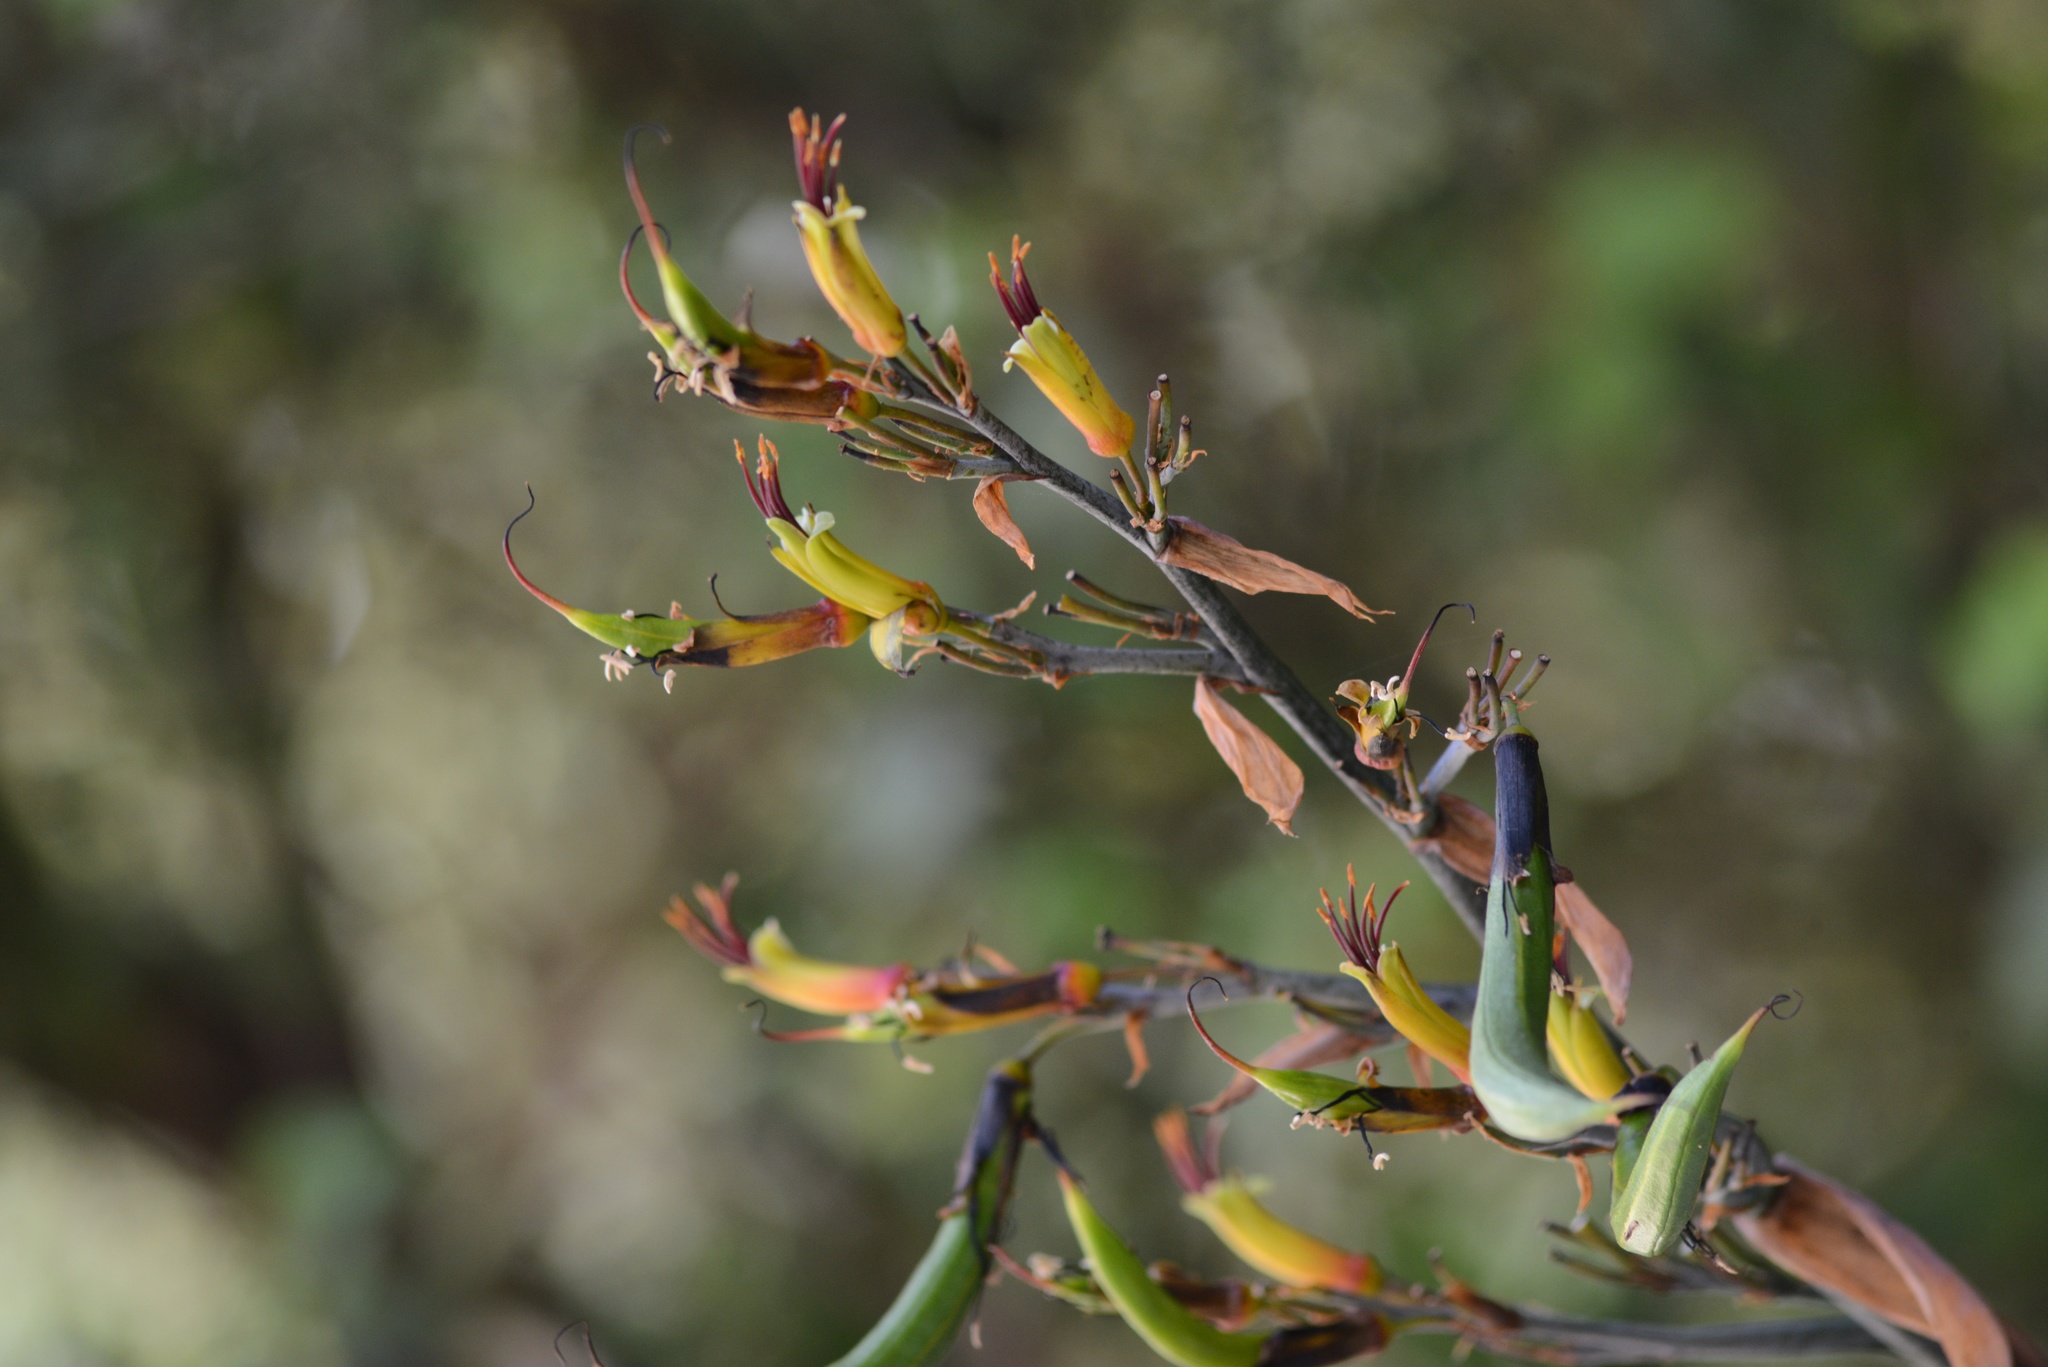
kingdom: Plantae
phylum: Tracheophyta
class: Liliopsida
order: Asparagales
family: Asphodelaceae
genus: Phormium
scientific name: Phormium colensoi
